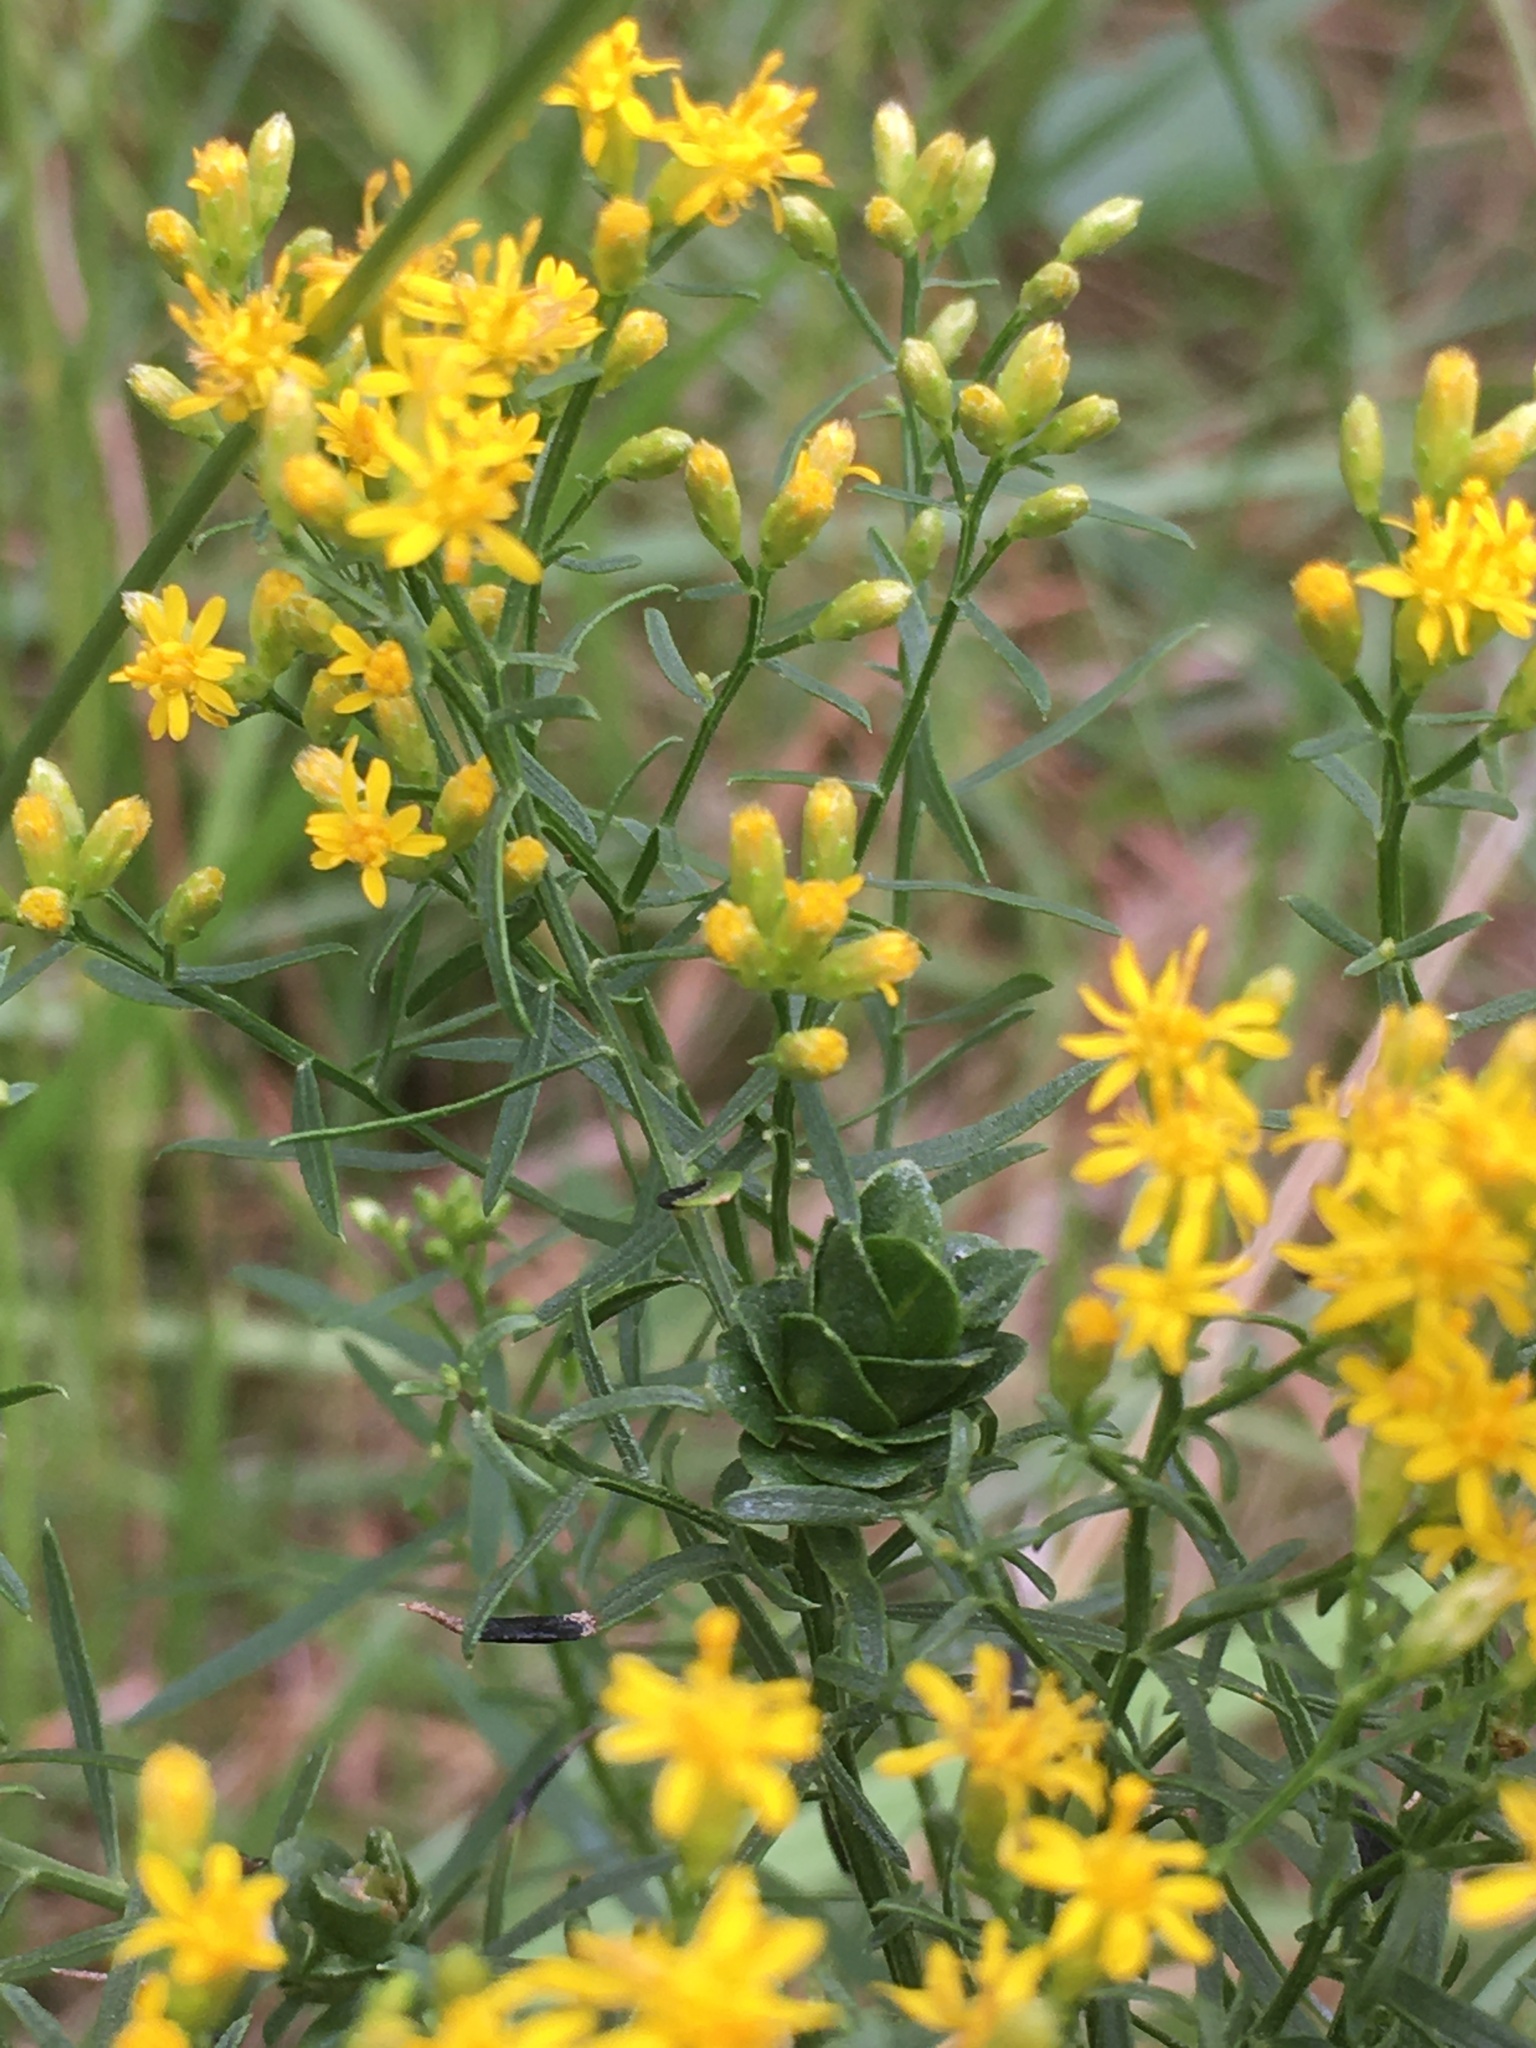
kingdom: Animalia
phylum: Arthropoda
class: Insecta
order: Diptera
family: Cecidomyiidae
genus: Asphondylia
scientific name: Asphondylia pseudorosa
